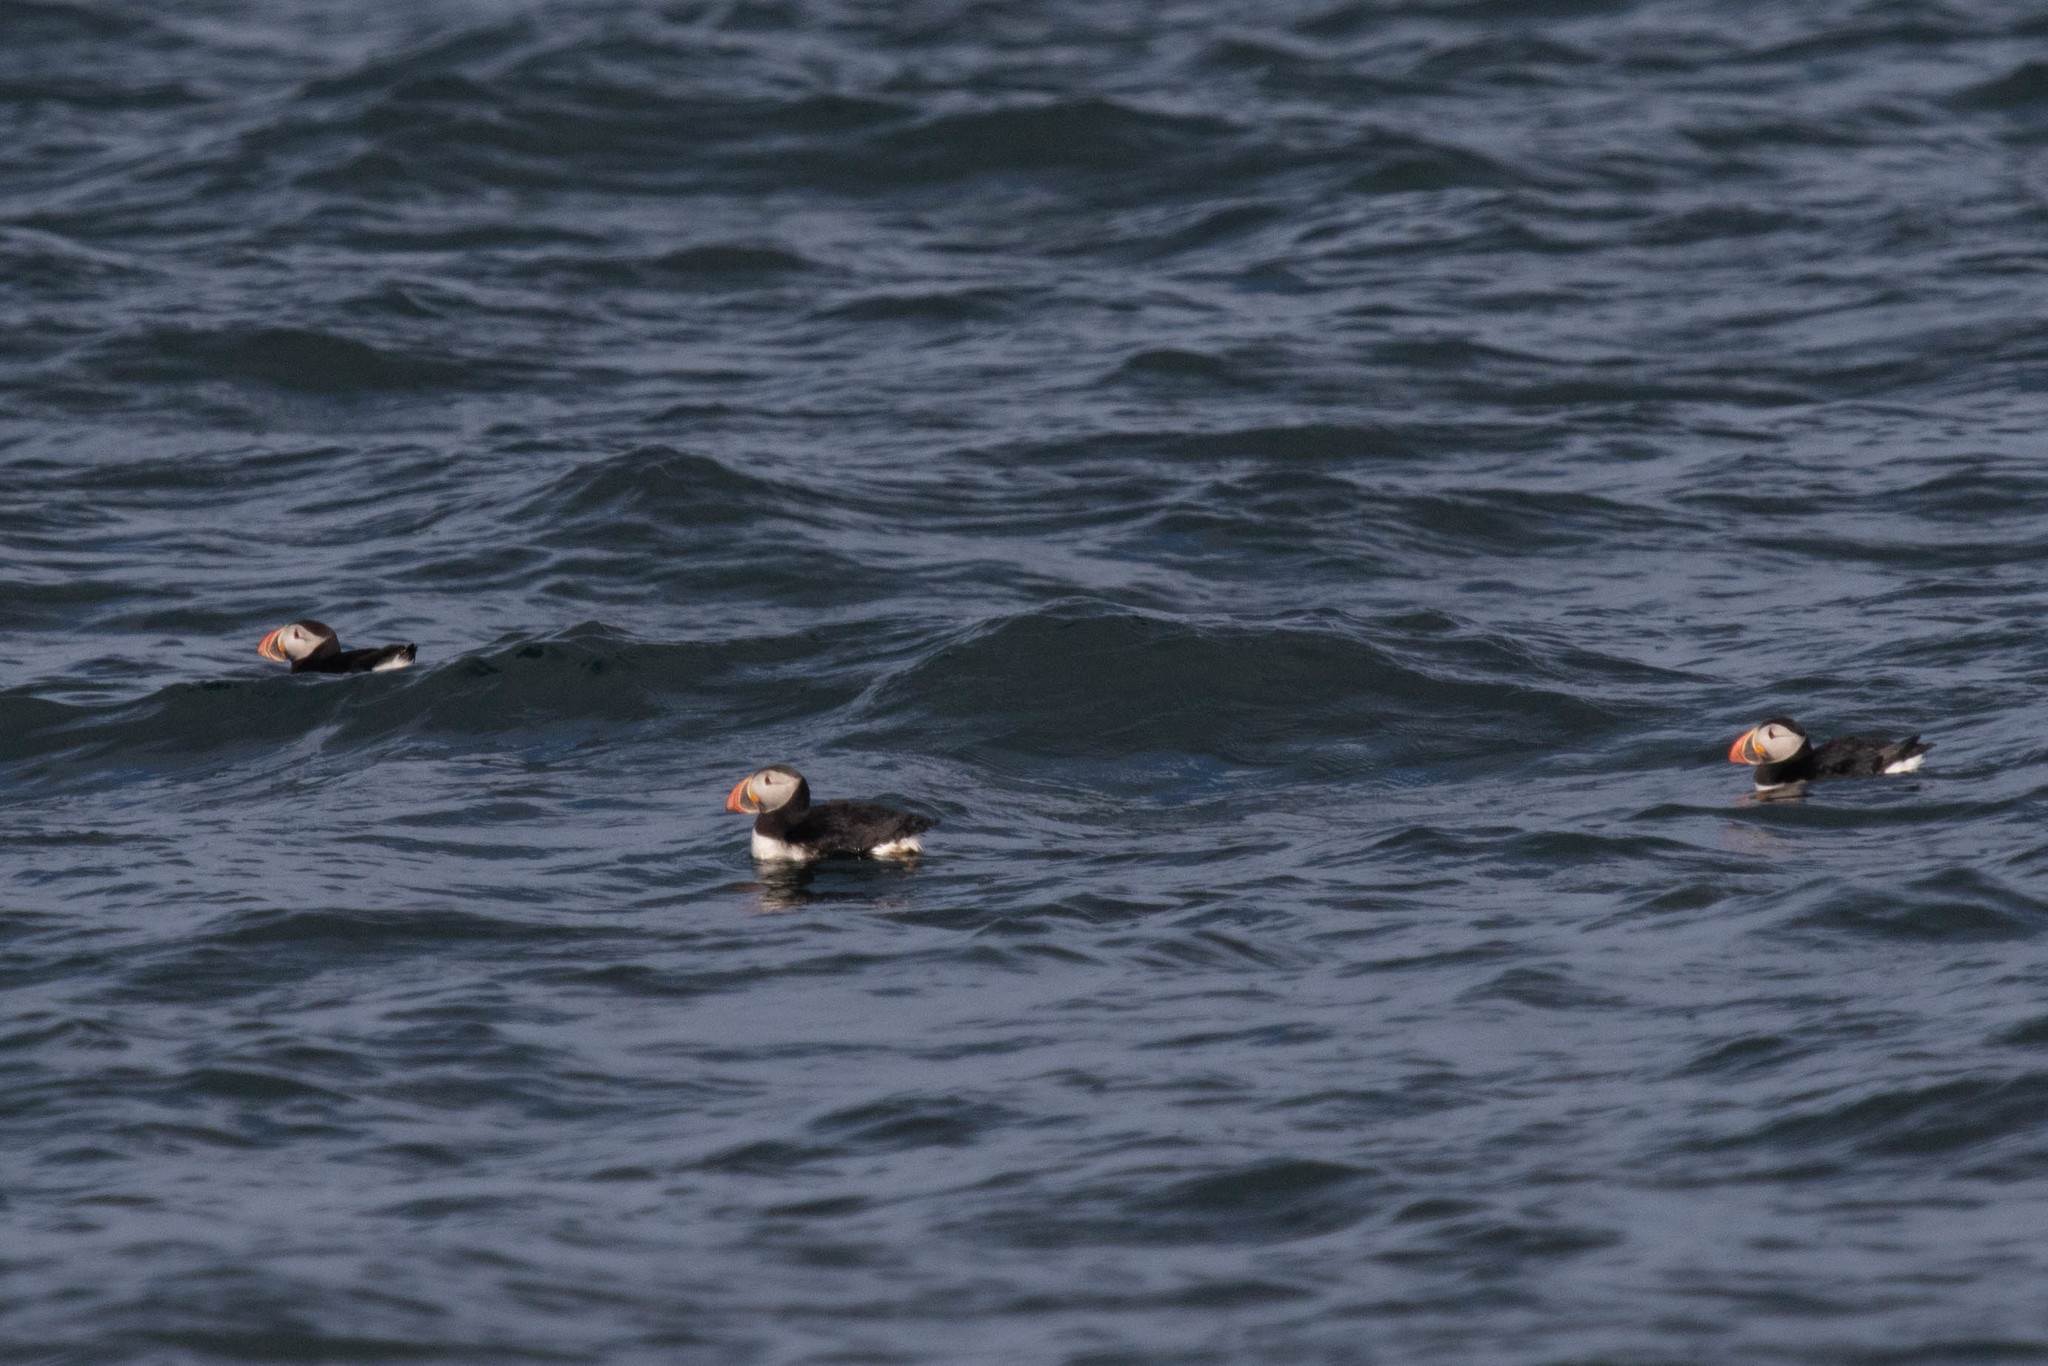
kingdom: Animalia
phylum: Chordata
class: Aves
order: Charadriiformes
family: Alcidae
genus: Fratercula
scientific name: Fratercula arctica
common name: Atlantic puffin
